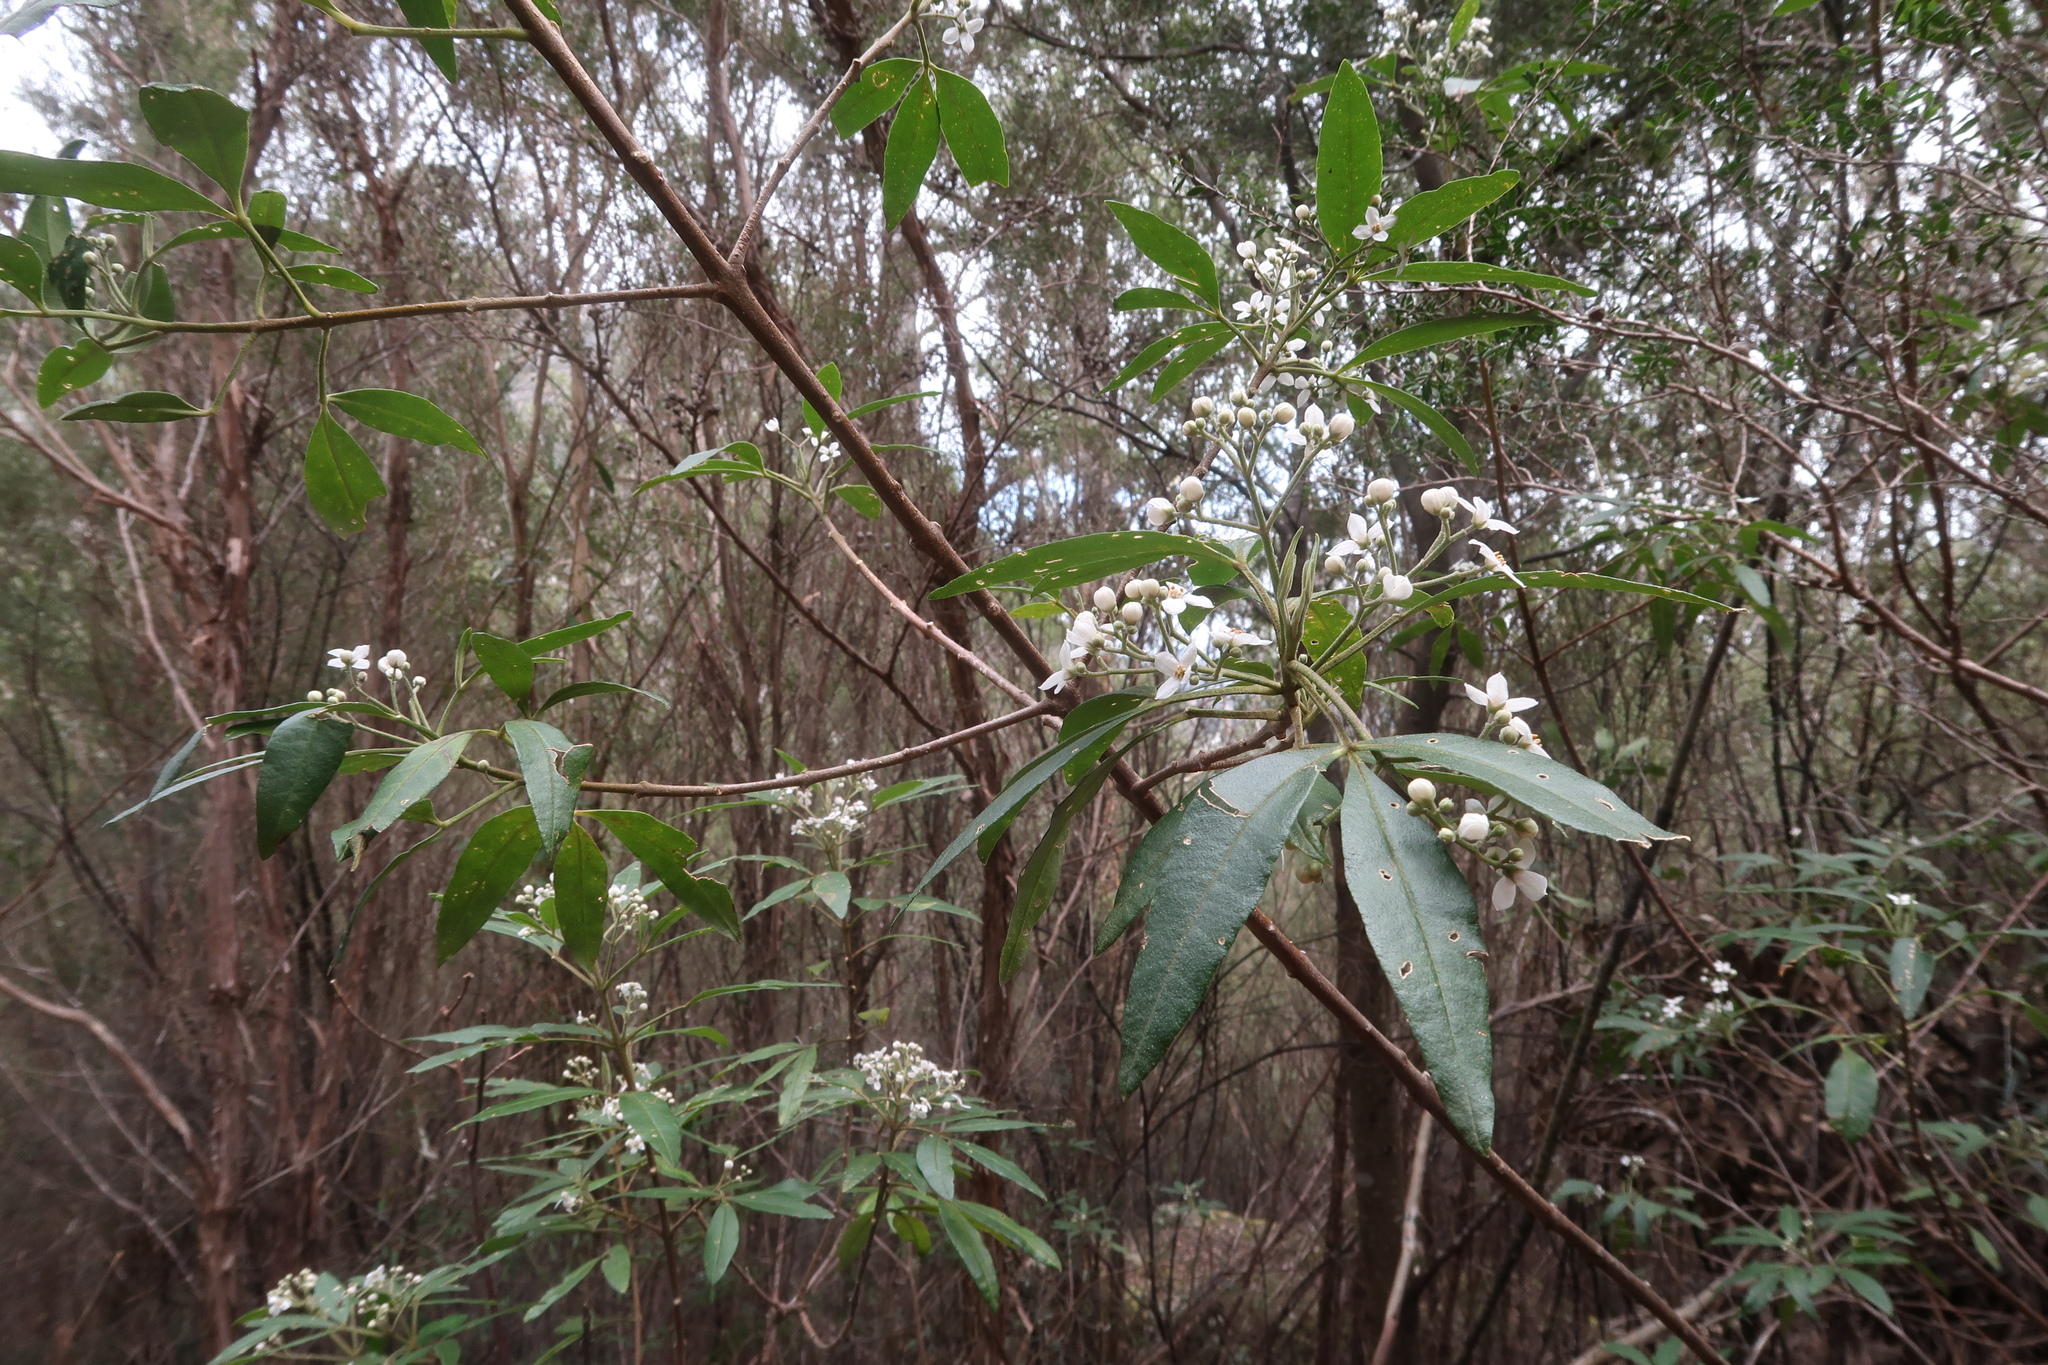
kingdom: Plantae
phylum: Tracheophyta
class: Magnoliopsida
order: Sapindales
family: Rutaceae
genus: Zieria
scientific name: Zieria arborescens
